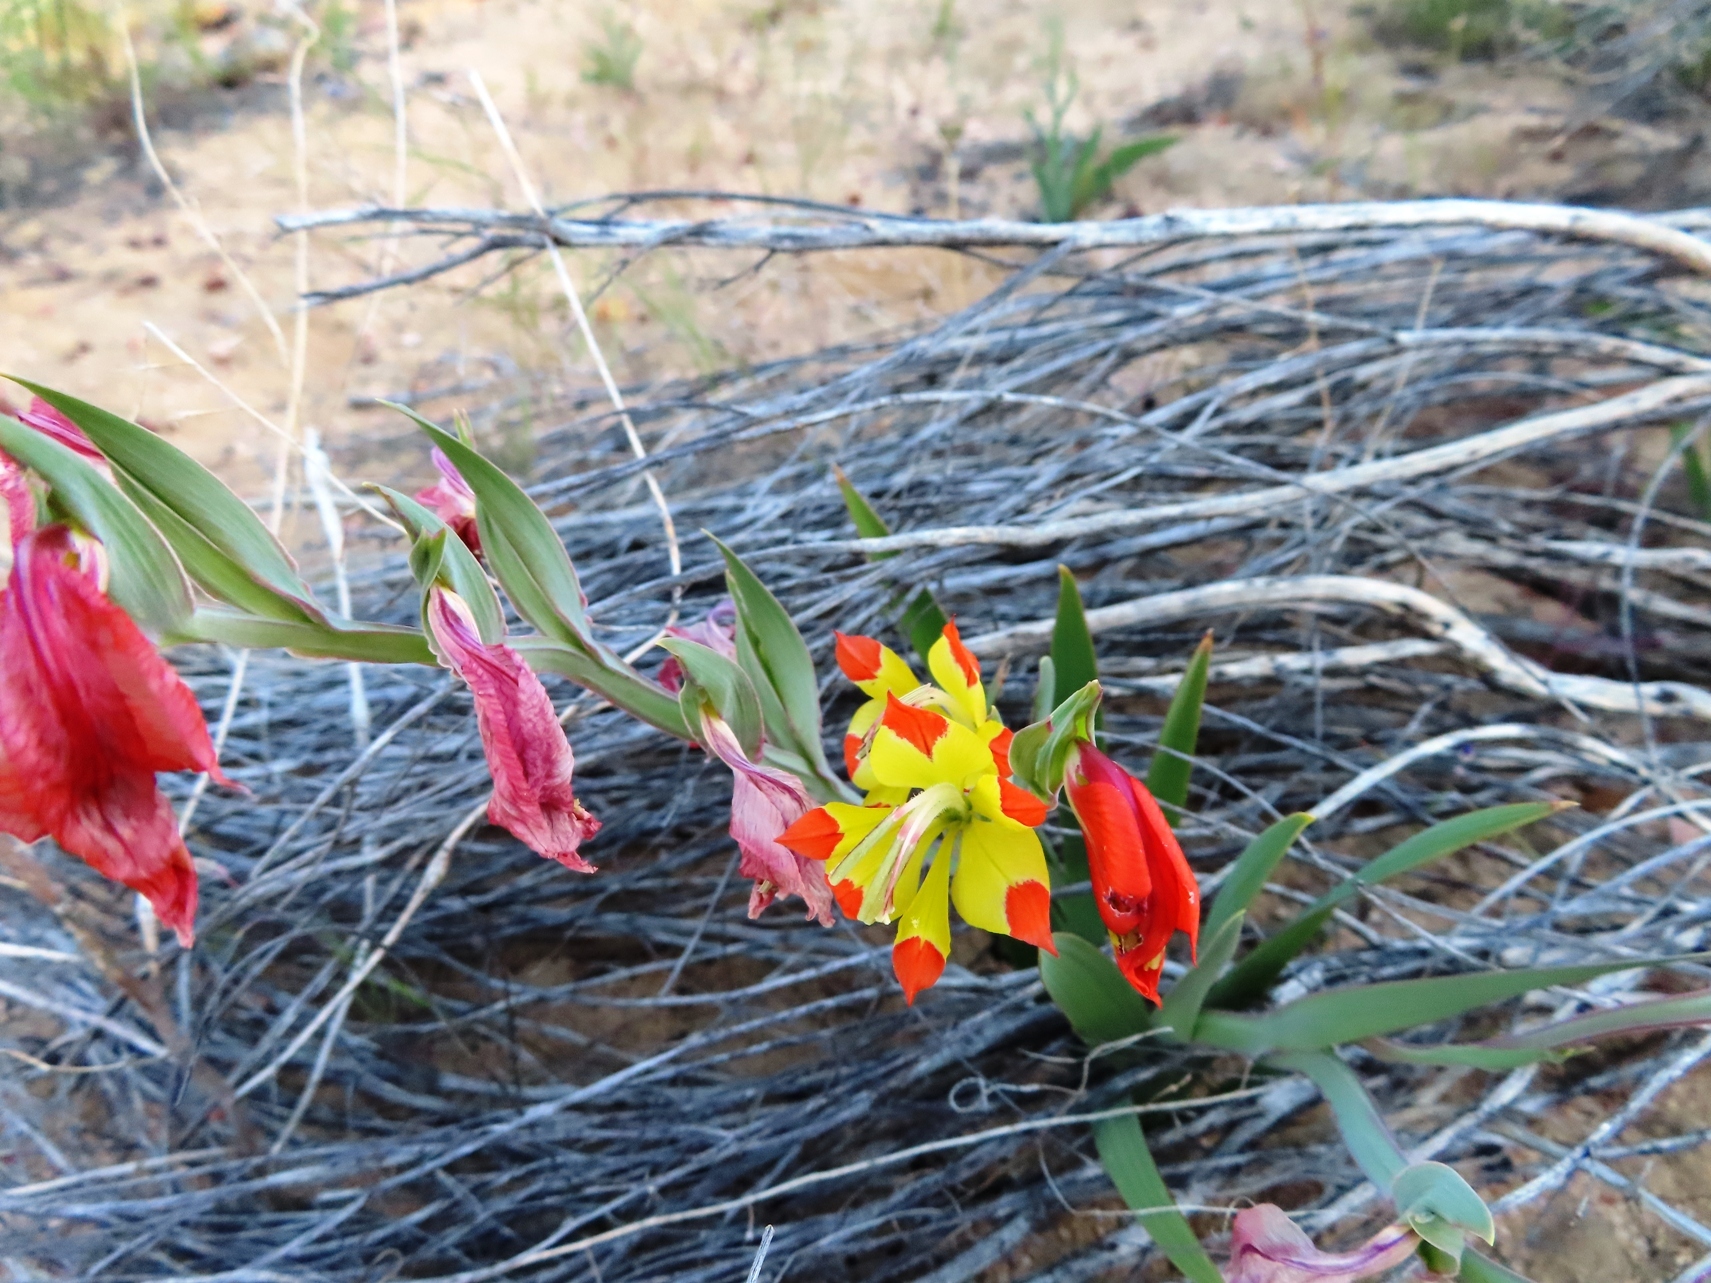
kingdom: Plantae
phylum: Tracheophyta
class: Liliopsida
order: Asparagales
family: Iridaceae
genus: Gladiolus
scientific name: Gladiolus speciosus
